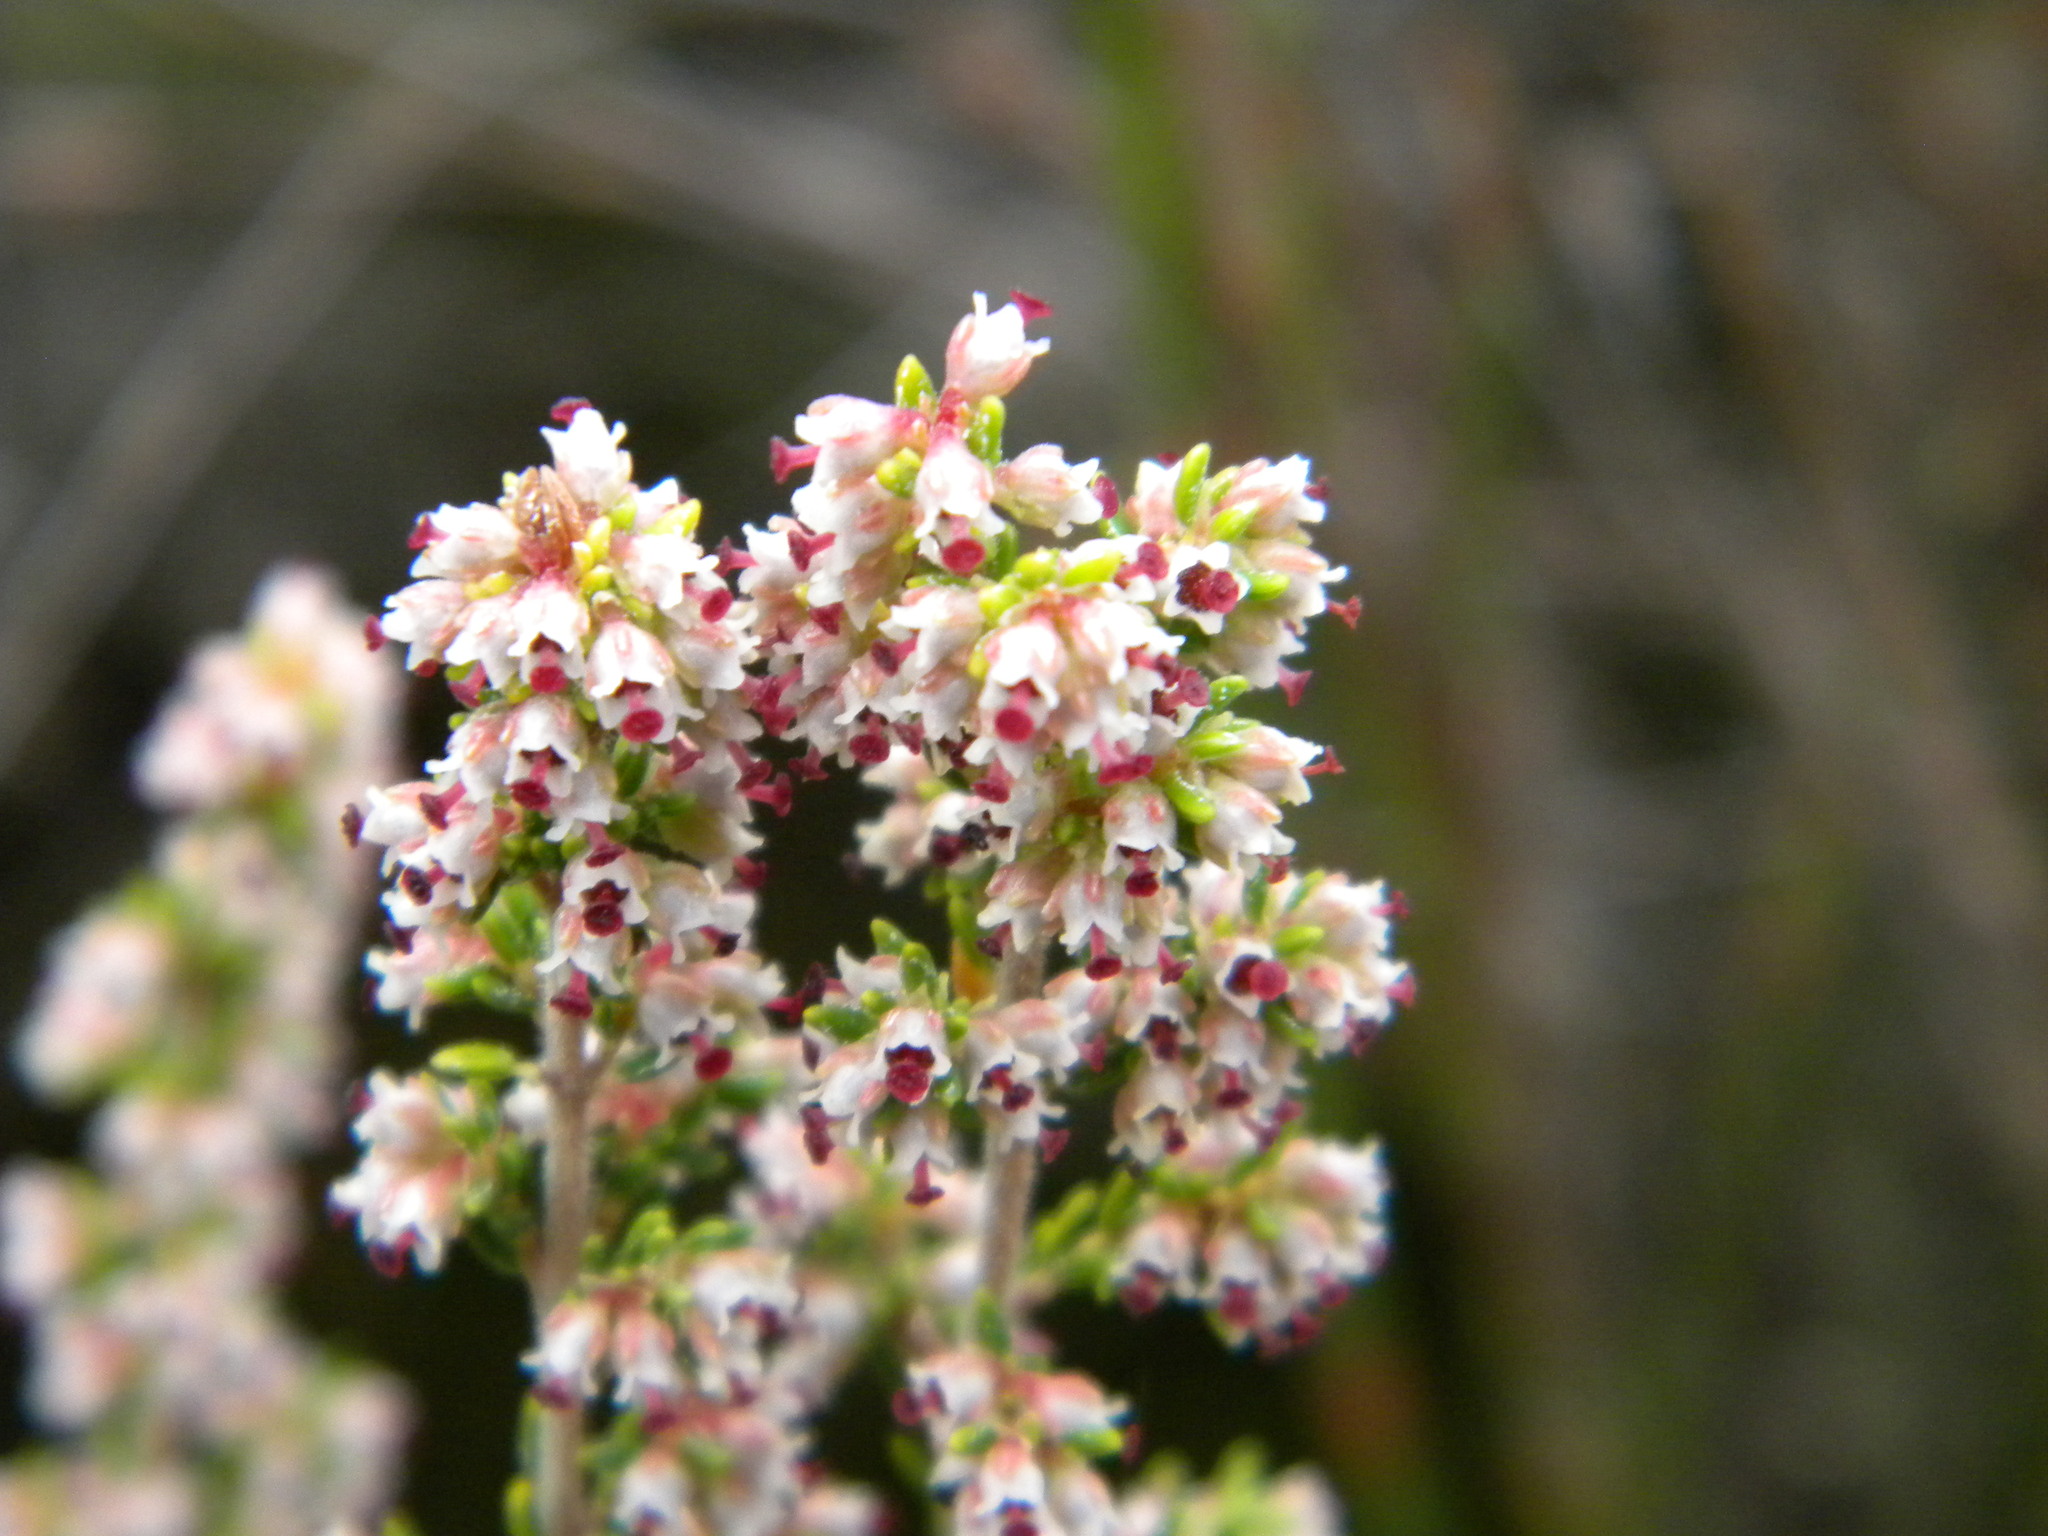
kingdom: Plantae
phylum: Tracheophyta
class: Magnoliopsida
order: Ericales
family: Ericaceae
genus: Erica
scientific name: Erica hispidula
